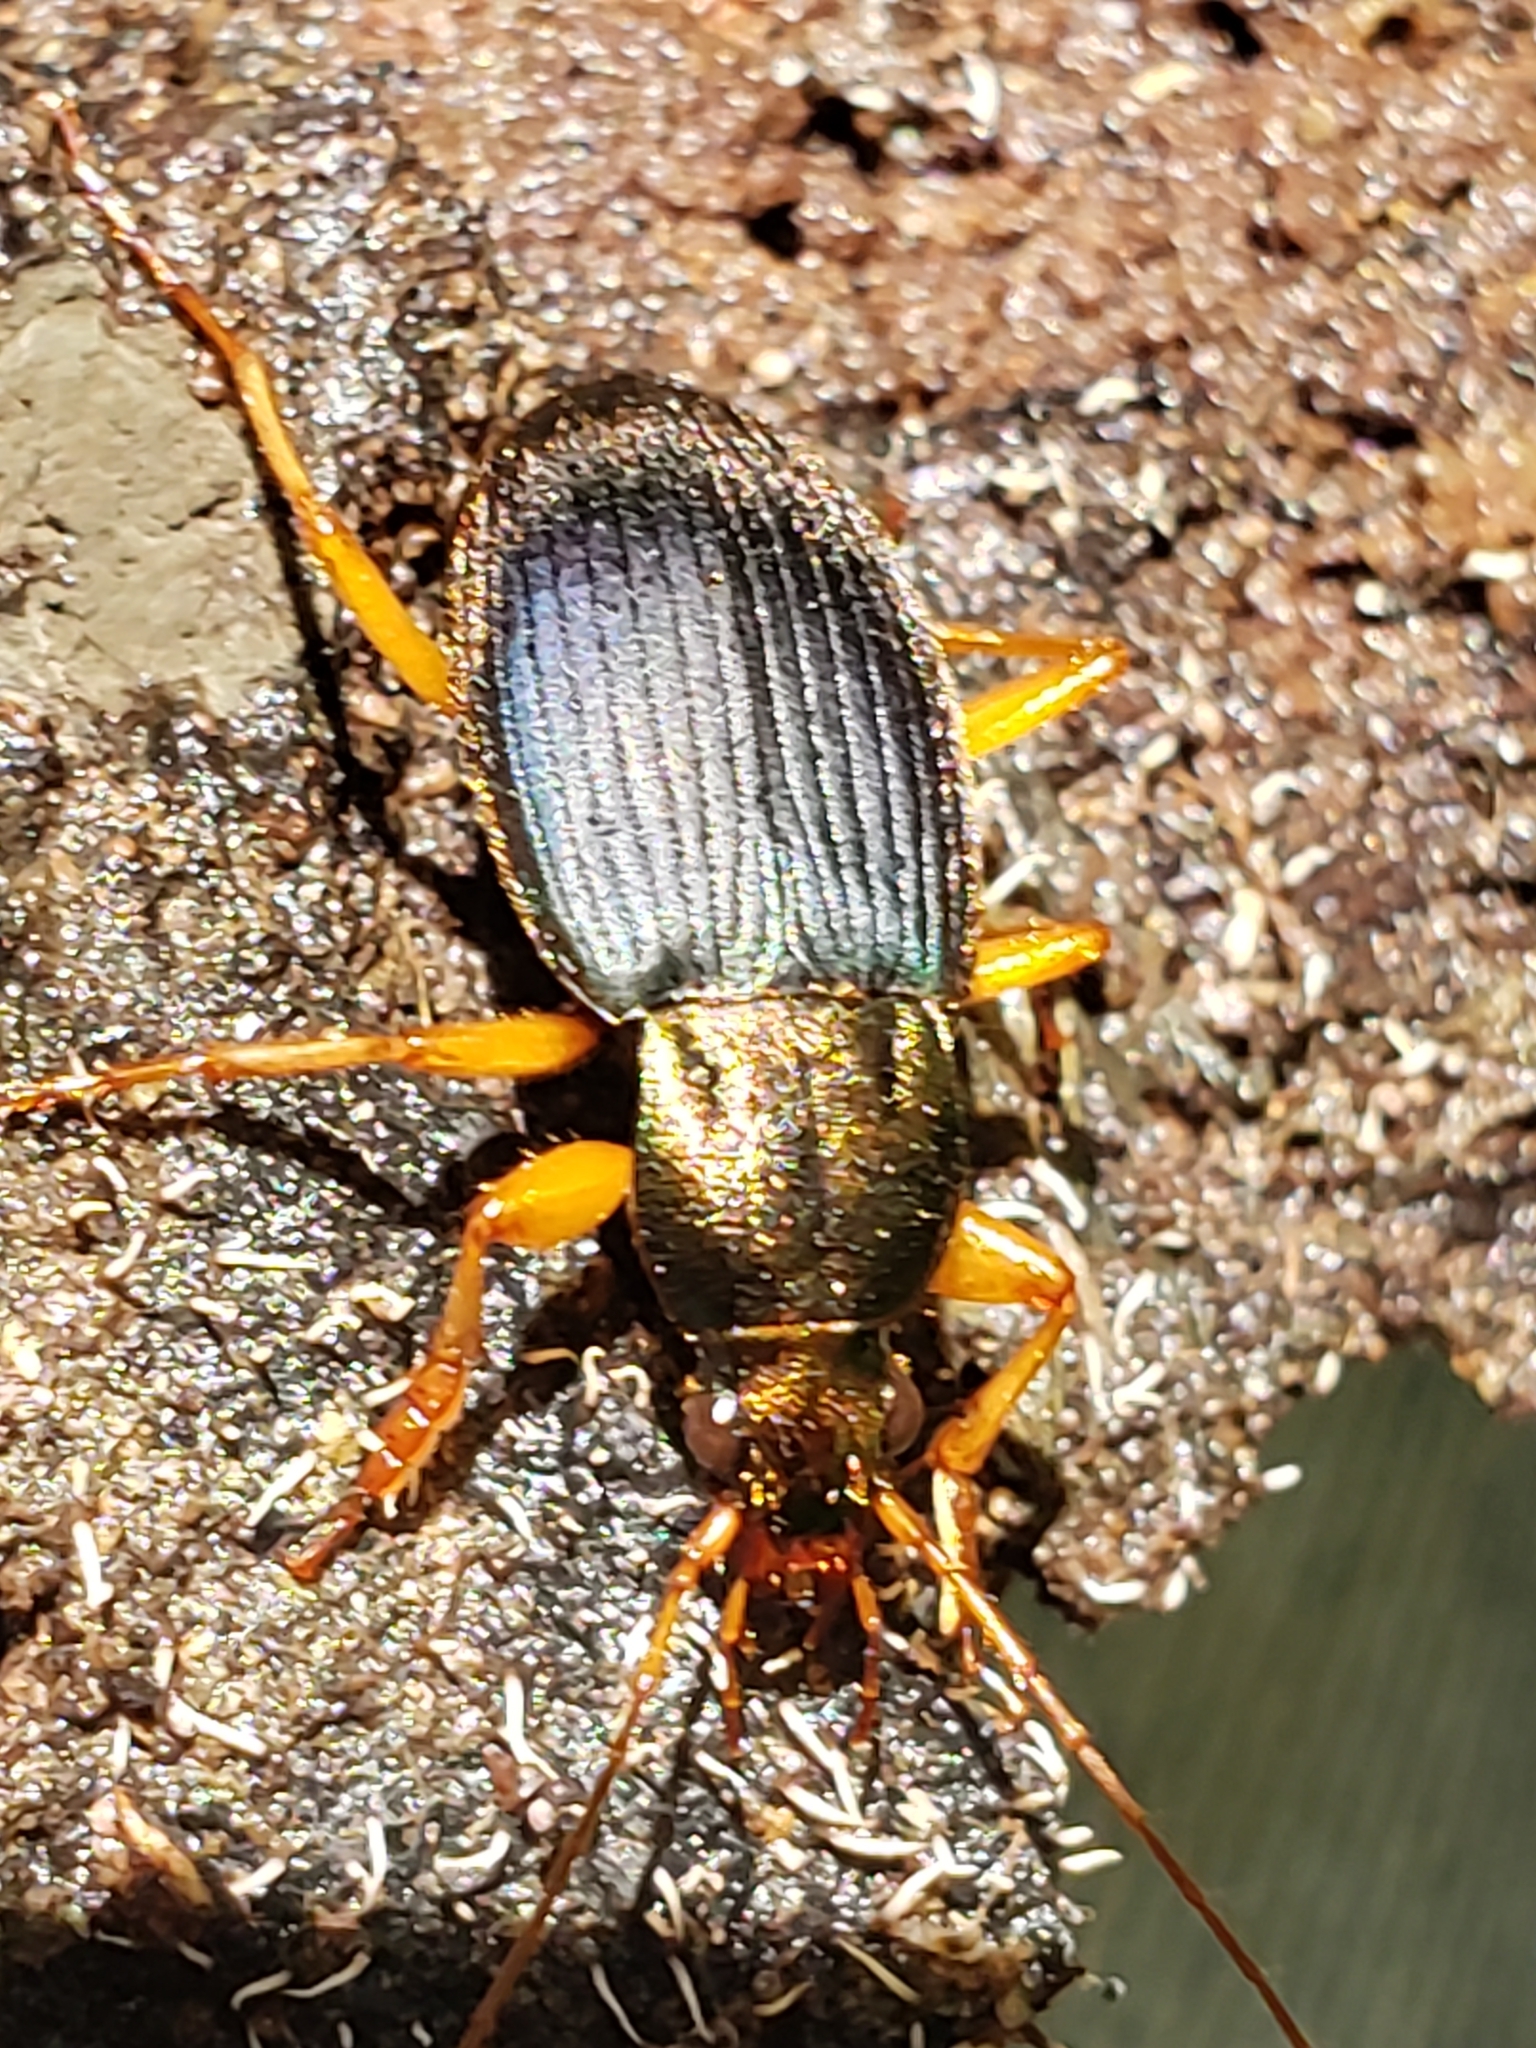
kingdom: Animalia
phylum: Arthropoda
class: Insecta
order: Coleoptera
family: Carabidae
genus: Chlaenius
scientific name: Chlaenius aestivus
